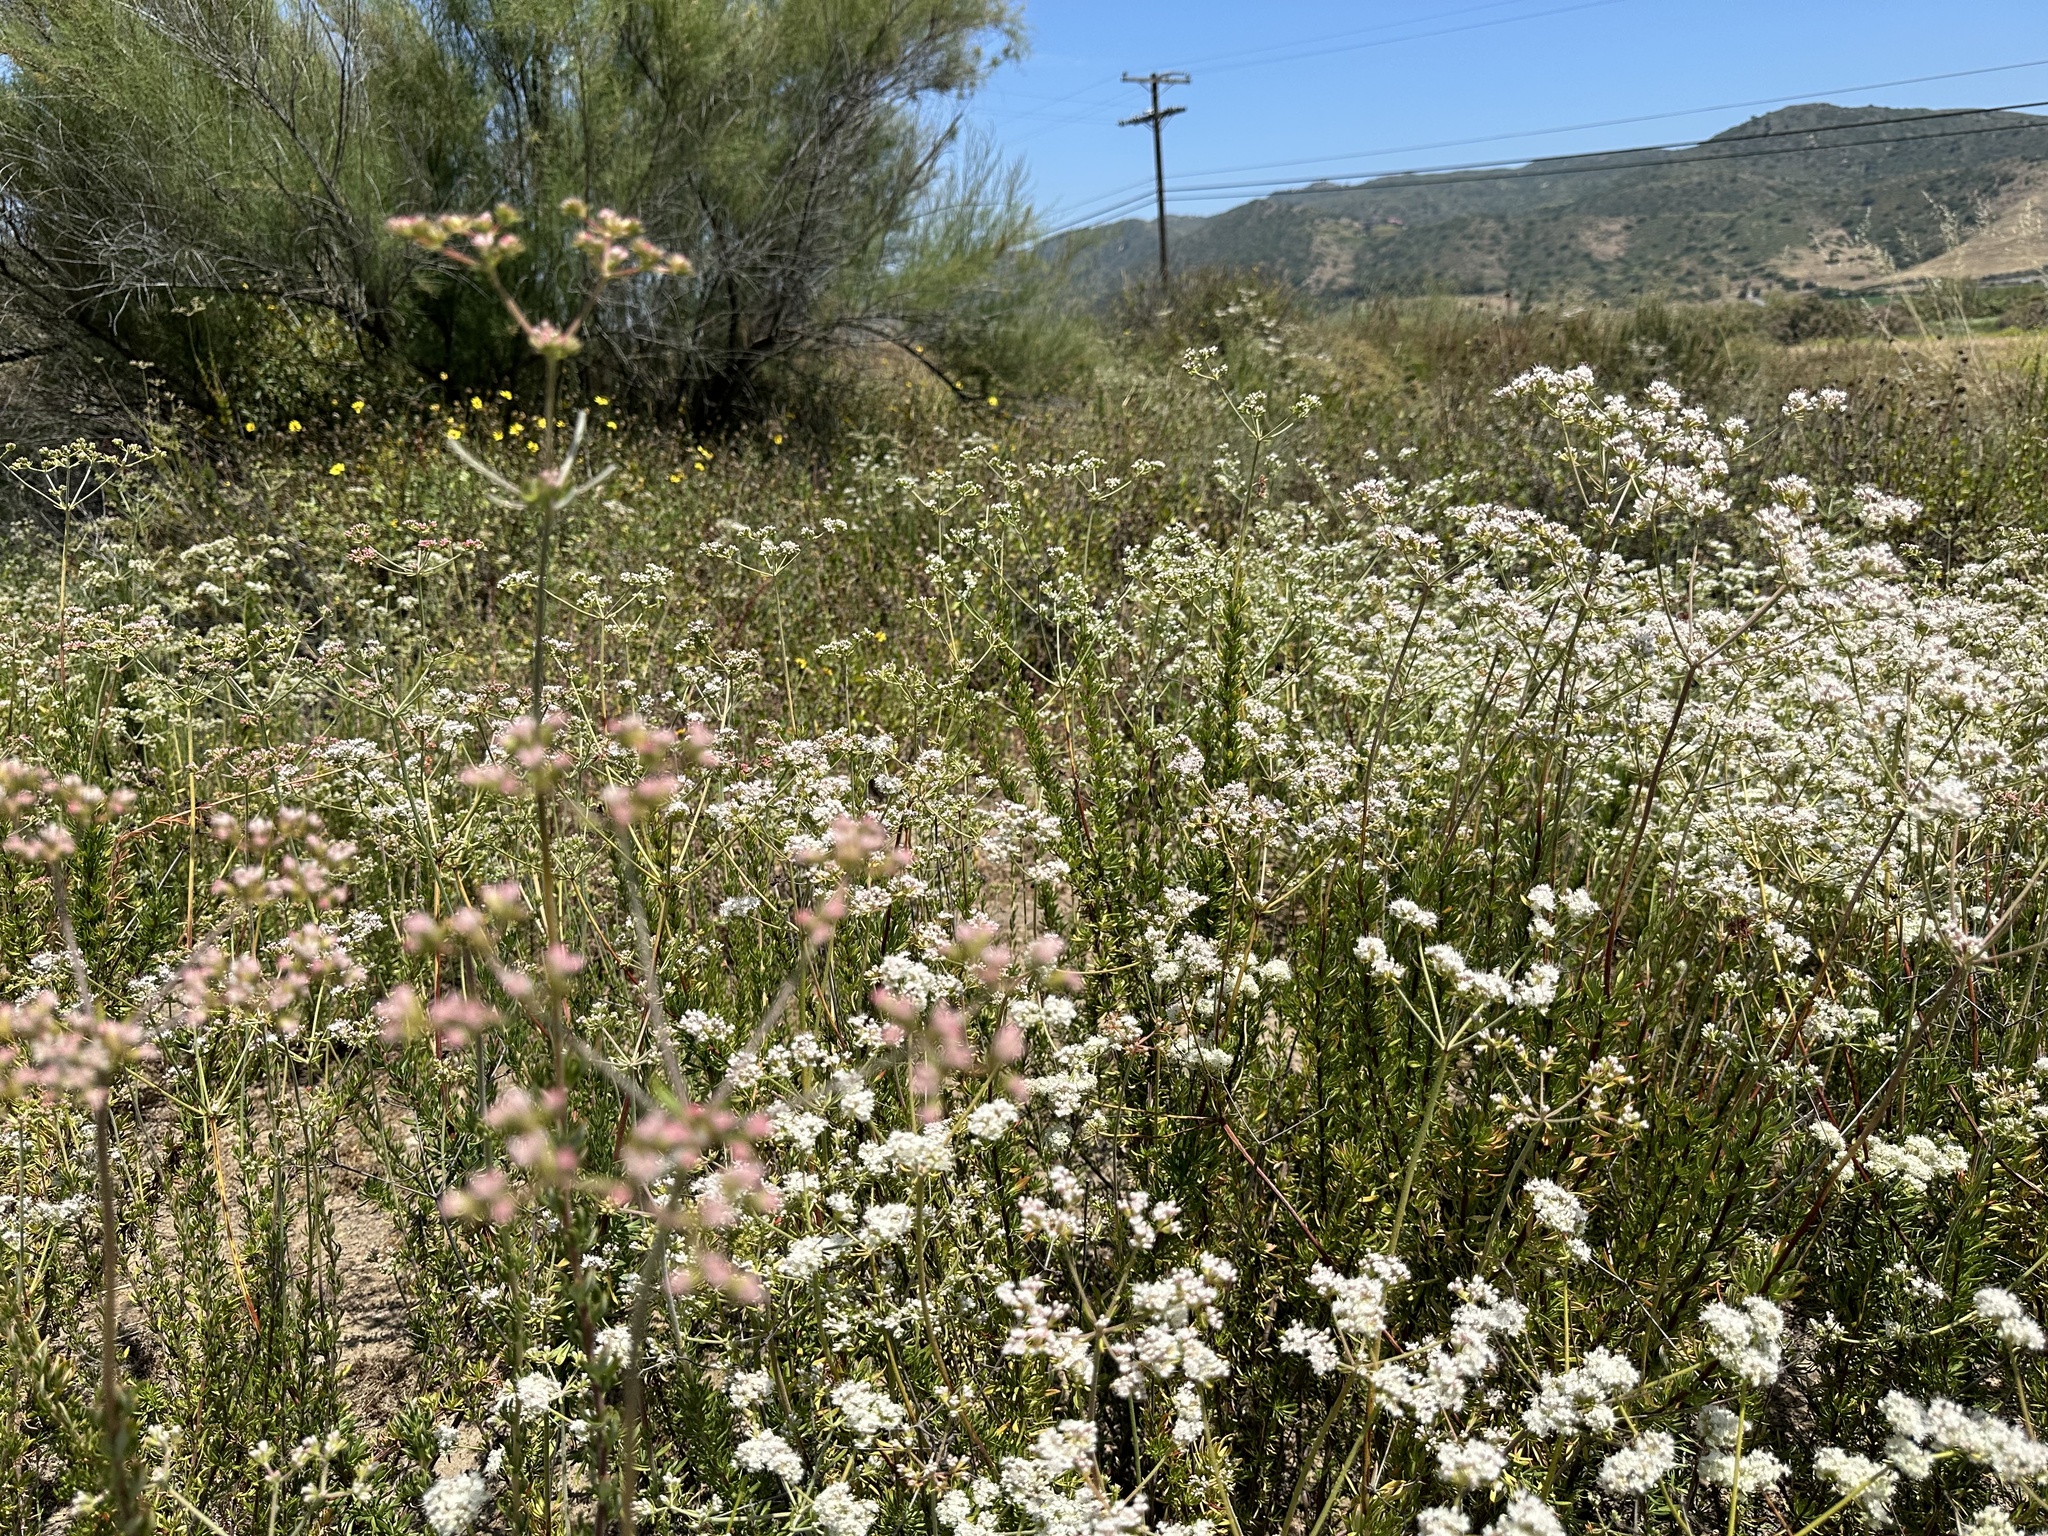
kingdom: Plantae
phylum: Tracheophyta
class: Magnoliopsida
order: Caryophyllales
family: Polygonaceae
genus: Eriogonum
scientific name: Eriogonum fasciculatum
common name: California wild buckwheat
